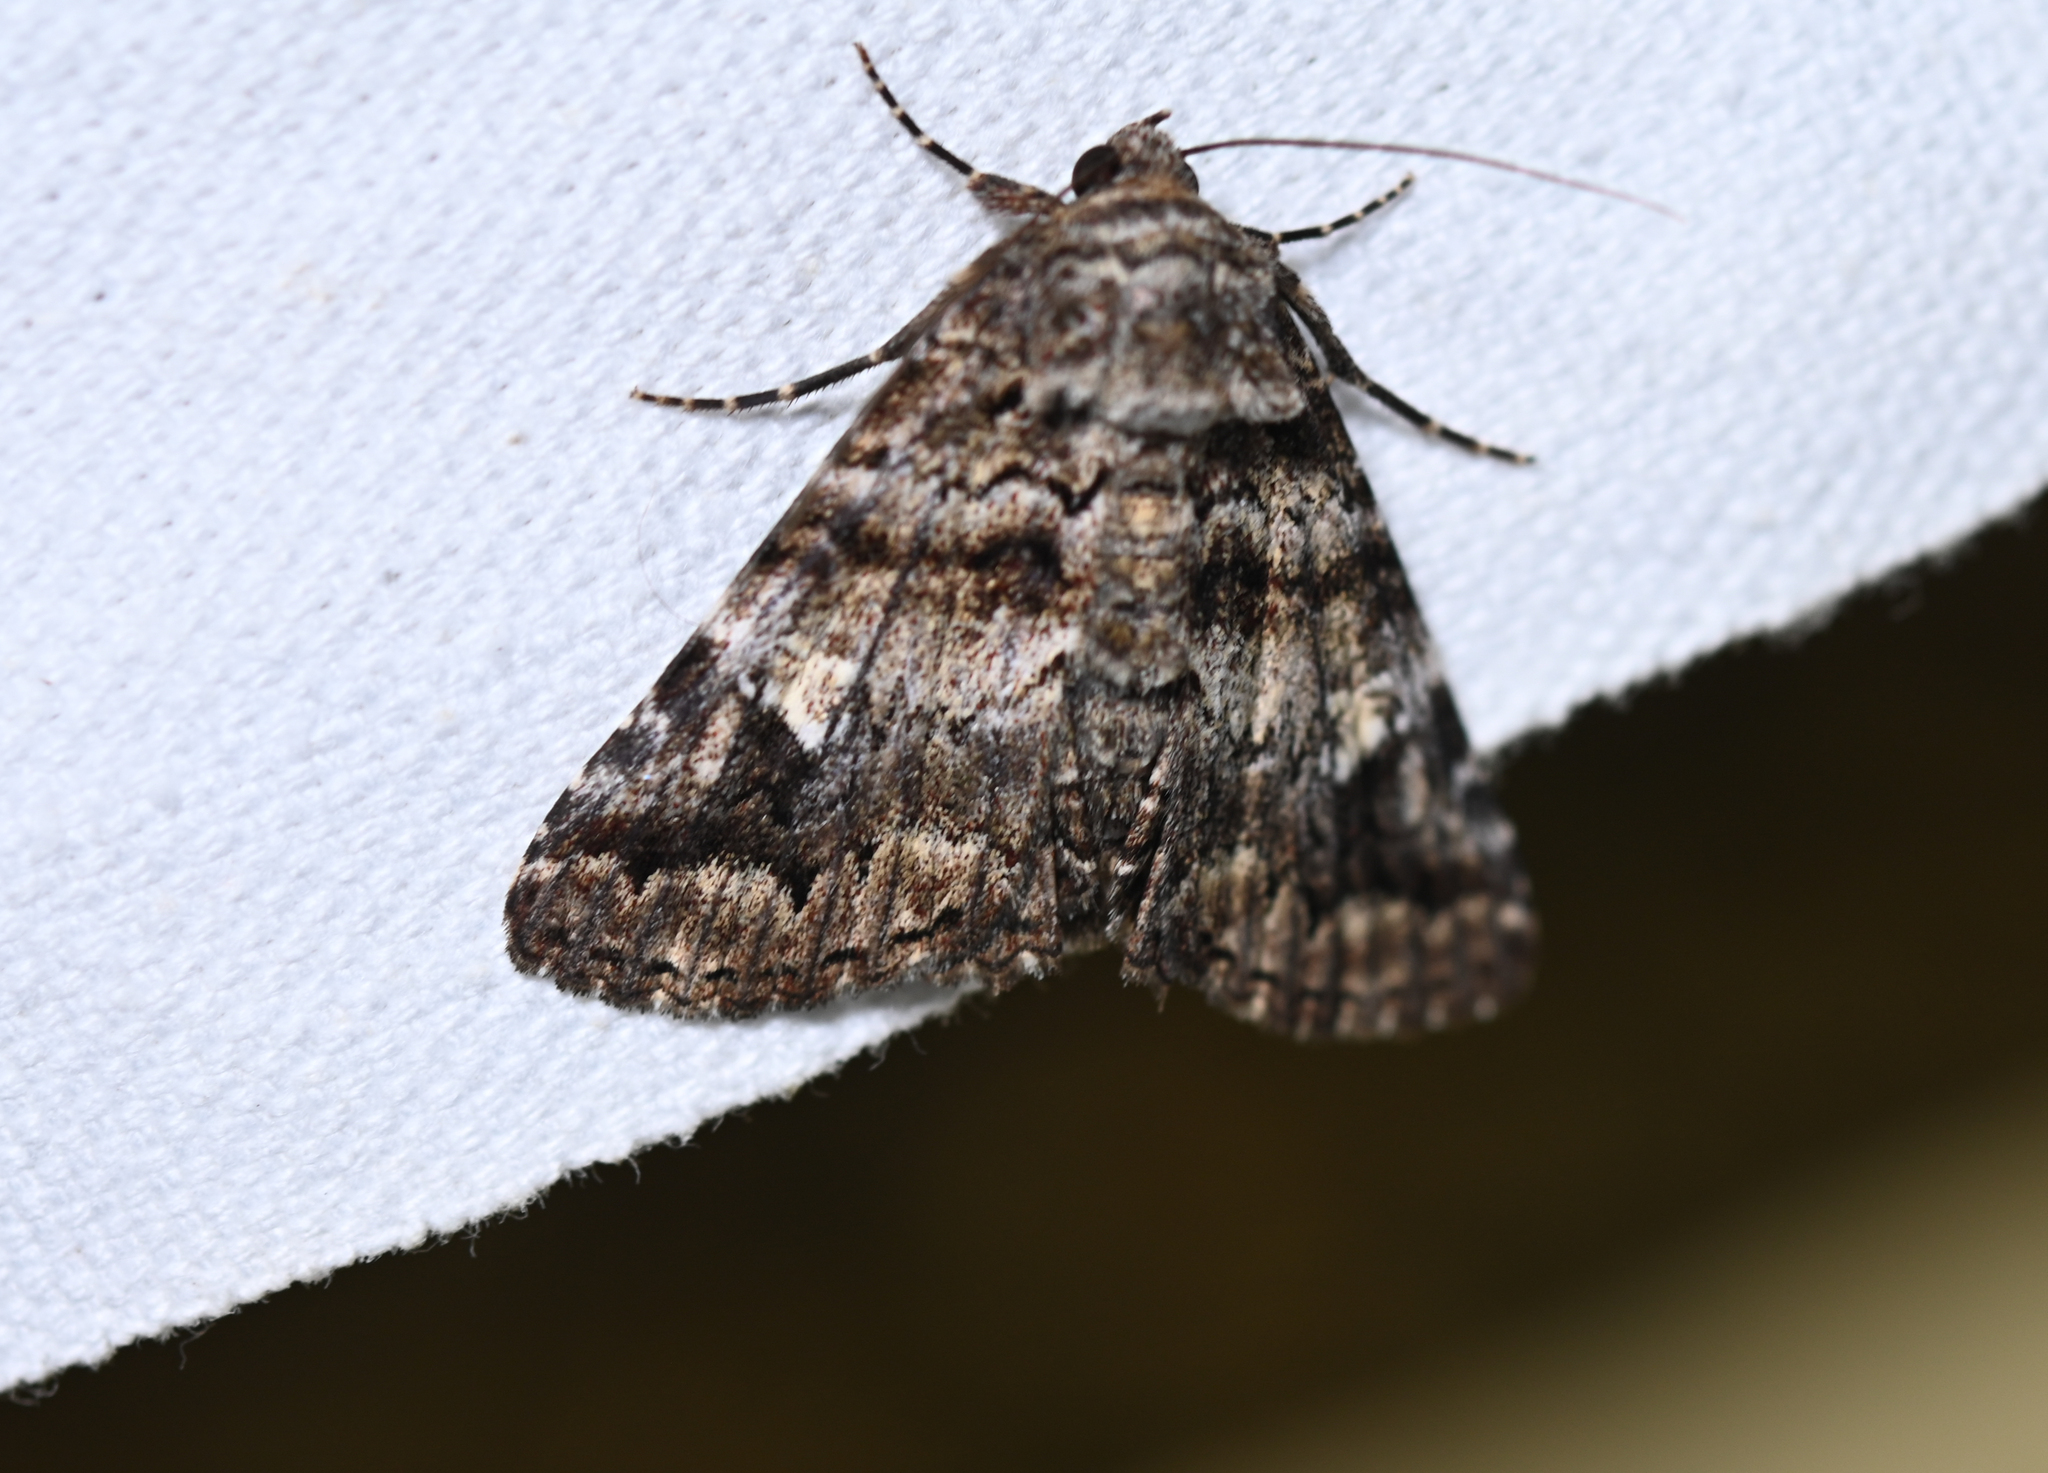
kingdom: Animalia
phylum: Arthropoda
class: Insecta
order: Lepidoptera
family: Erebidae
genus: Metria
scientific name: Metria amella
